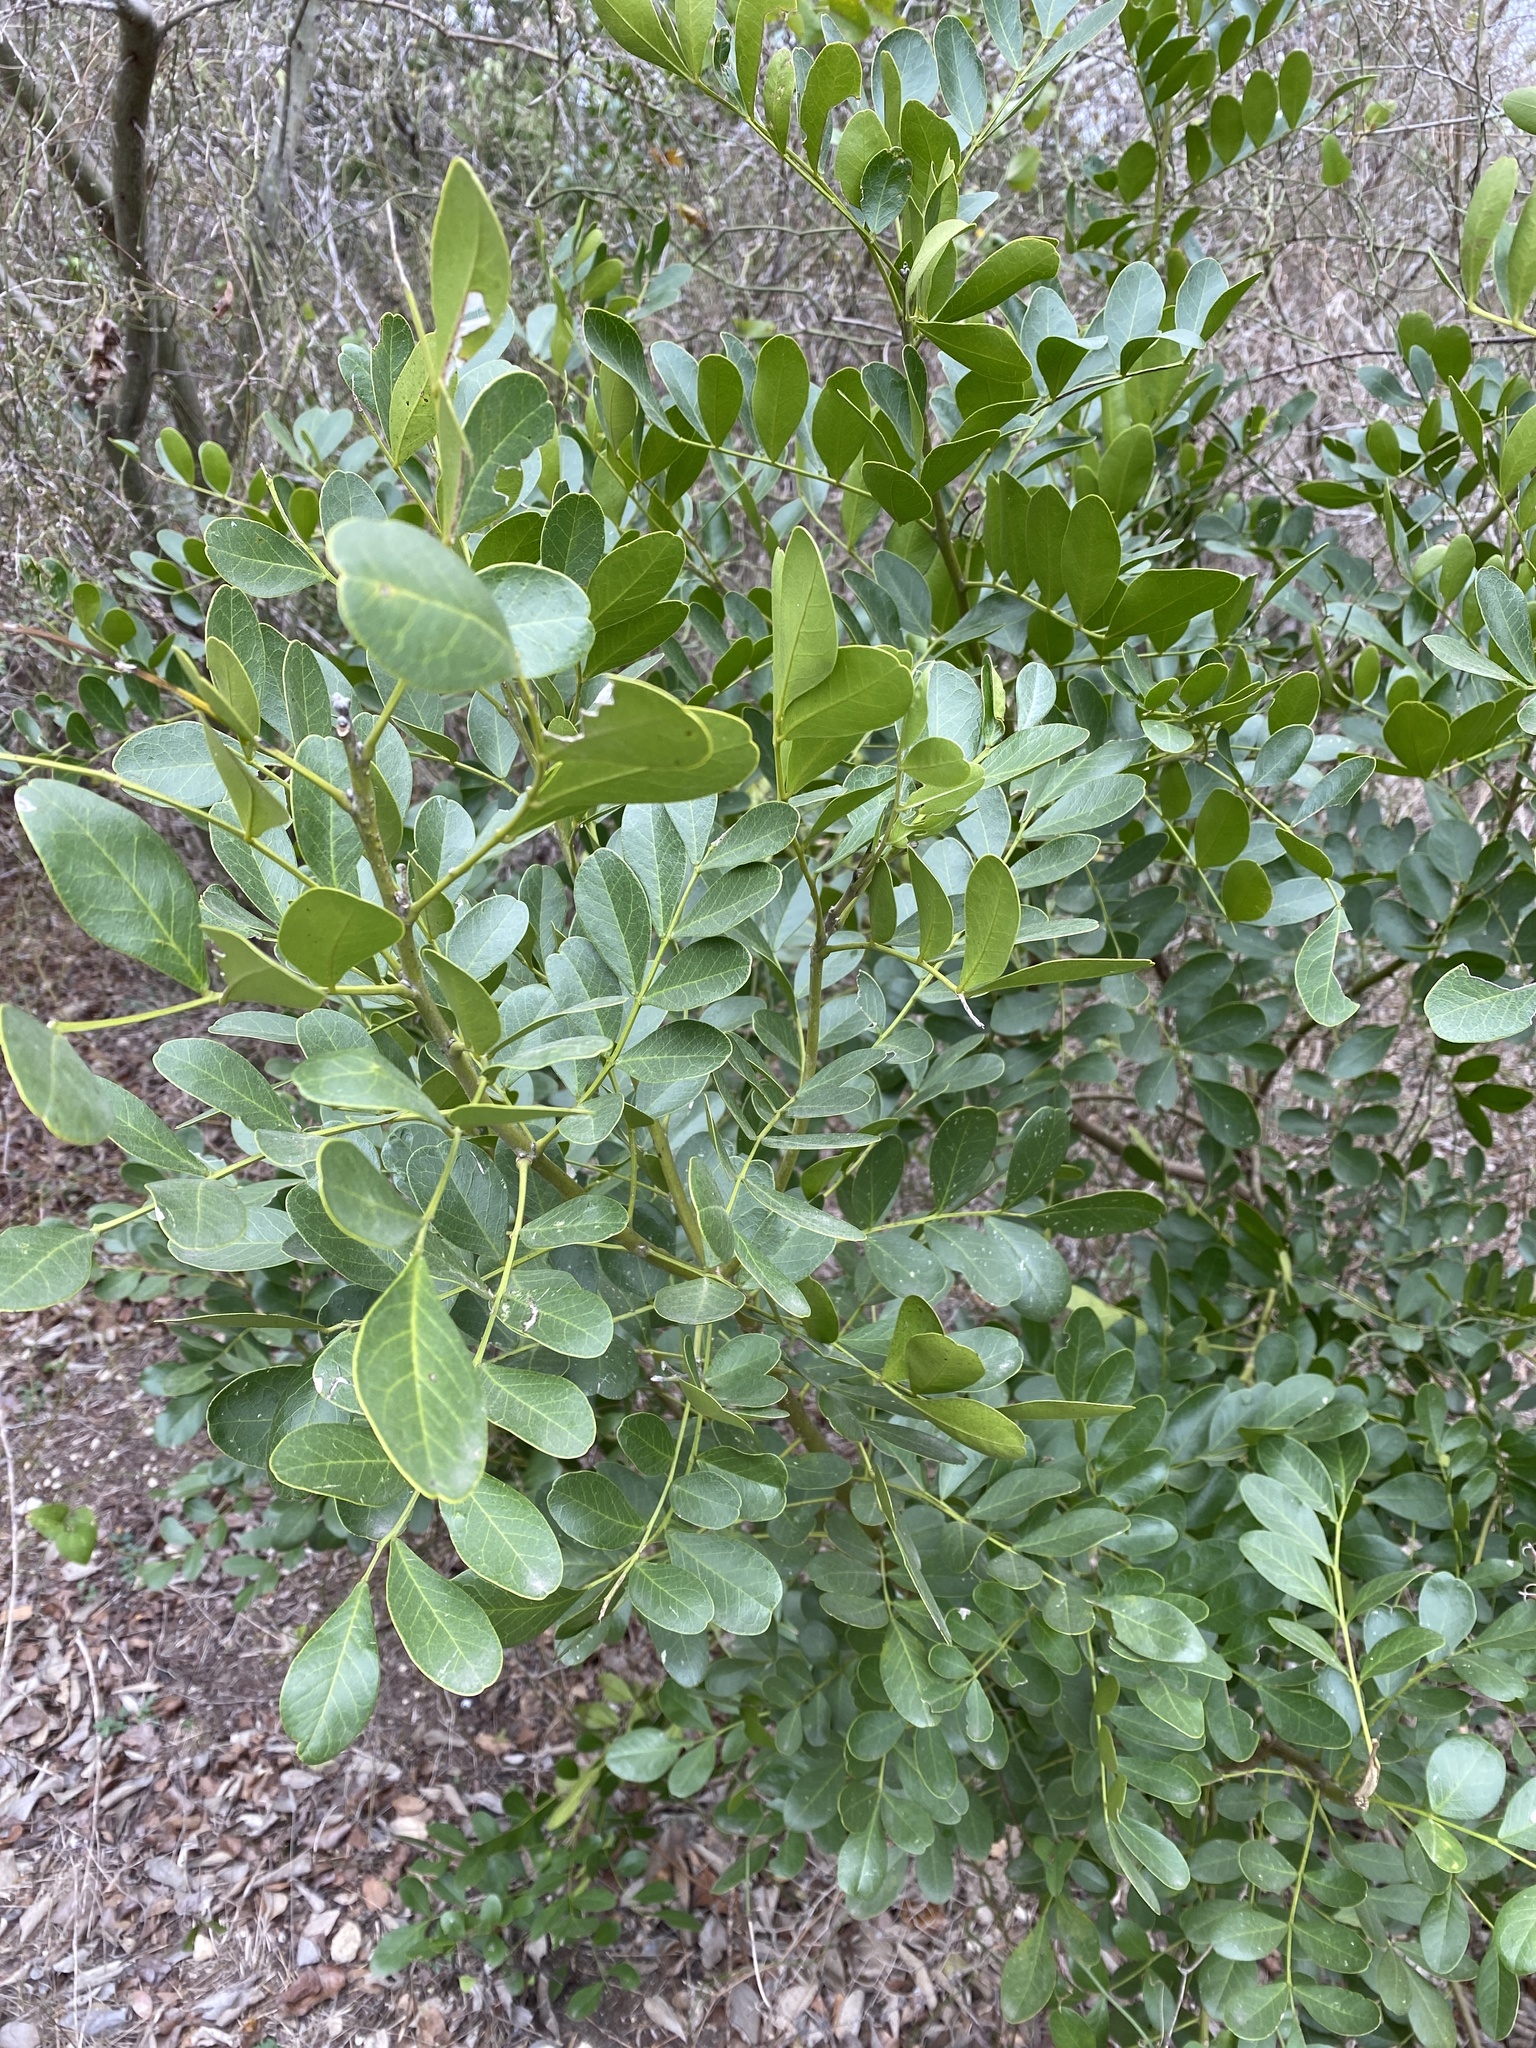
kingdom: Plantae
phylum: Tracheophyta
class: Magnoliopsida
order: Fabales
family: Fabaceae
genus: Dermatophyllum
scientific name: Dermatophyllum secundiflorum
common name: Texas-mountain-laurel
